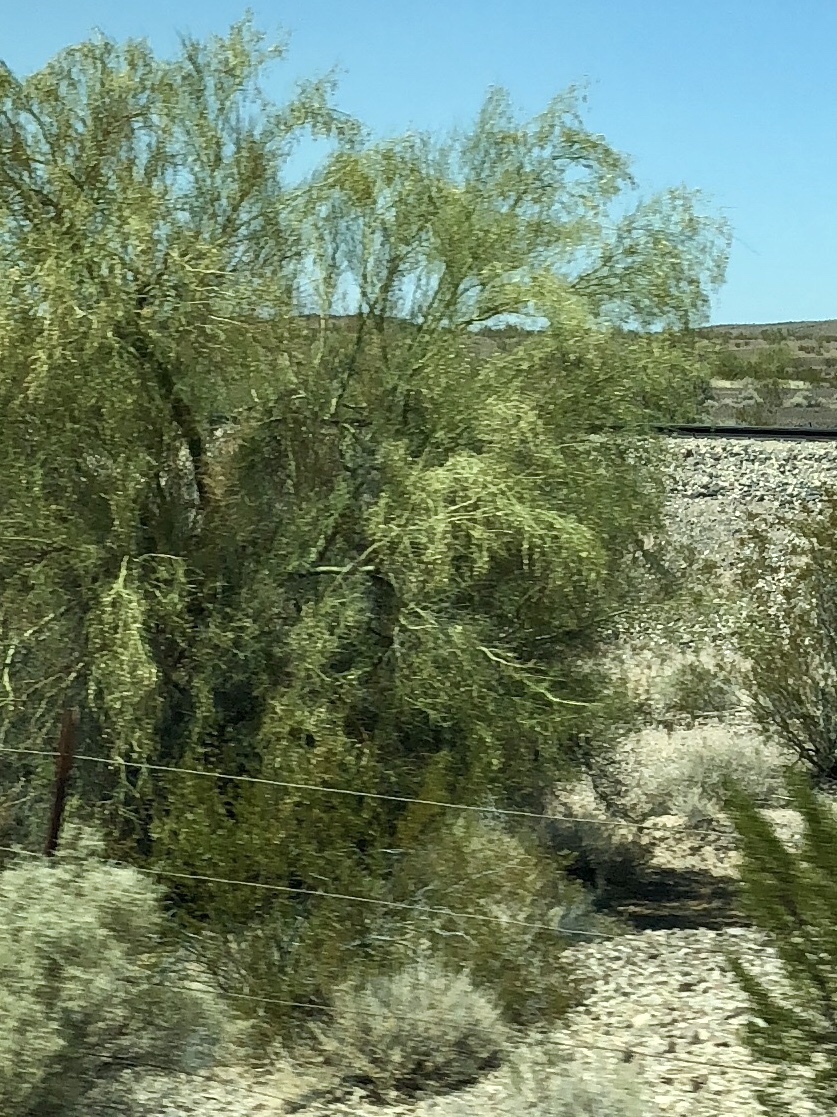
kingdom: Plantae
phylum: Tracheophyta
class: Magnoliopsida
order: Fabales
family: Fabaceae
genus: Parkinsonia
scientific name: Parkinsonia microphylla
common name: Yellow paloverde
